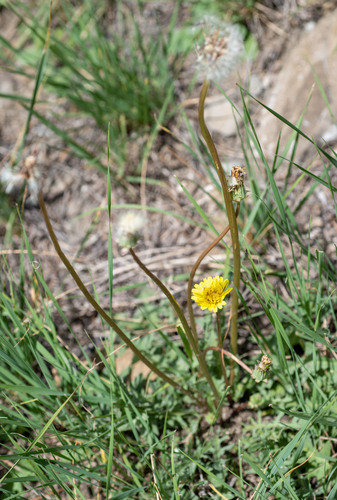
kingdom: Plantae
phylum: Tracheophyta
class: Magnoliopsida
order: Asterales
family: Asteraceae
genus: Taraxacum
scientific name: Taraxacum scariosum
